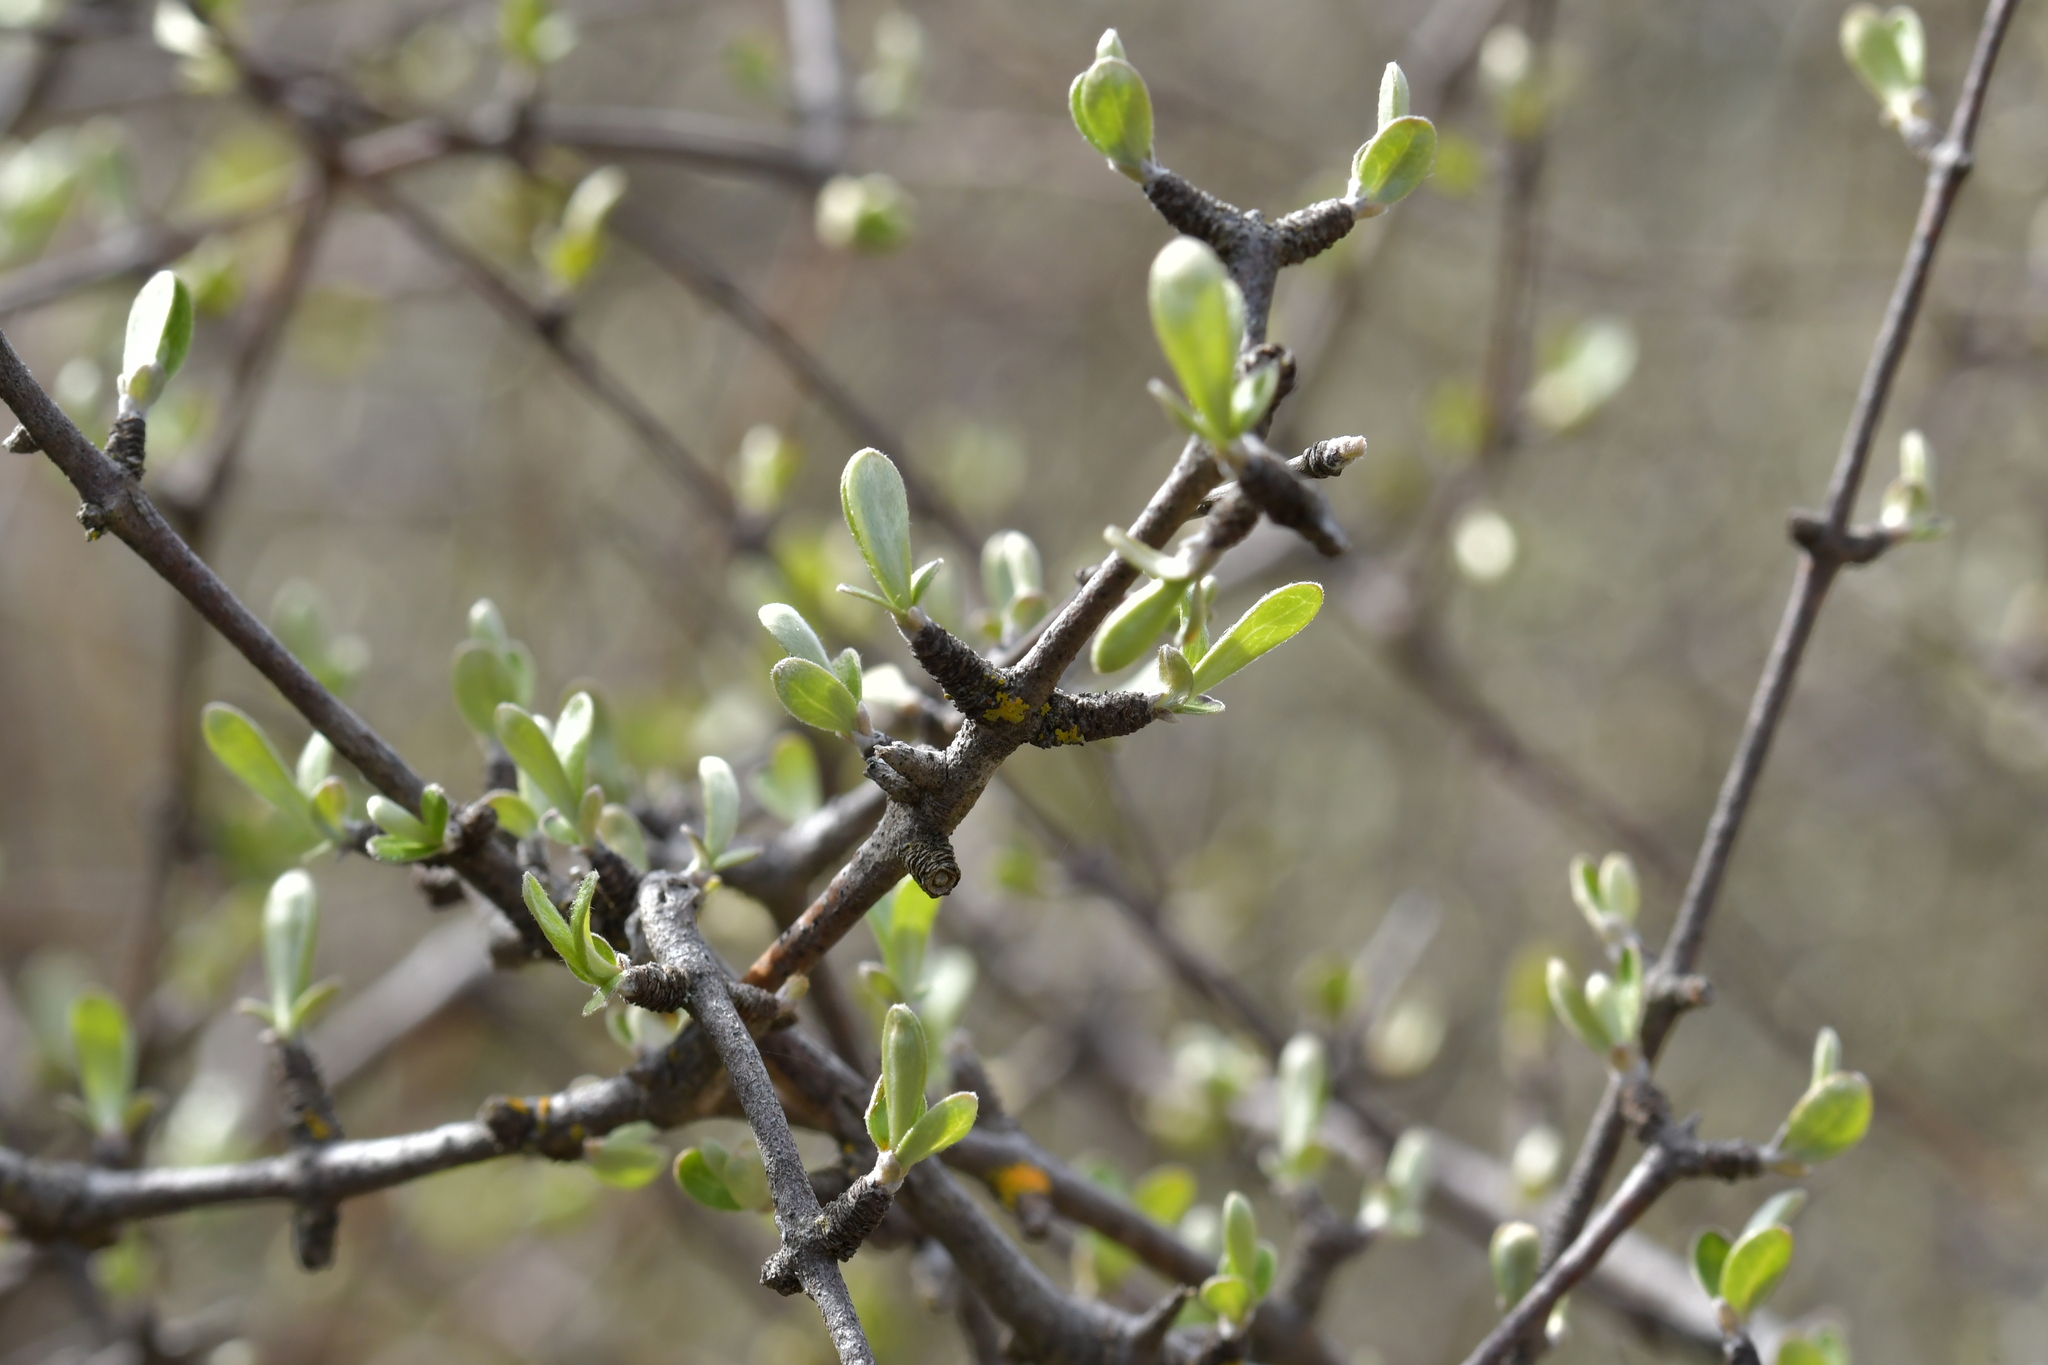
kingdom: Plantae
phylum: Tracheophyta
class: Magnoliopsida
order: Asterales
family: Asteraceae
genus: Olearia
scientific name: Olearia odorata
